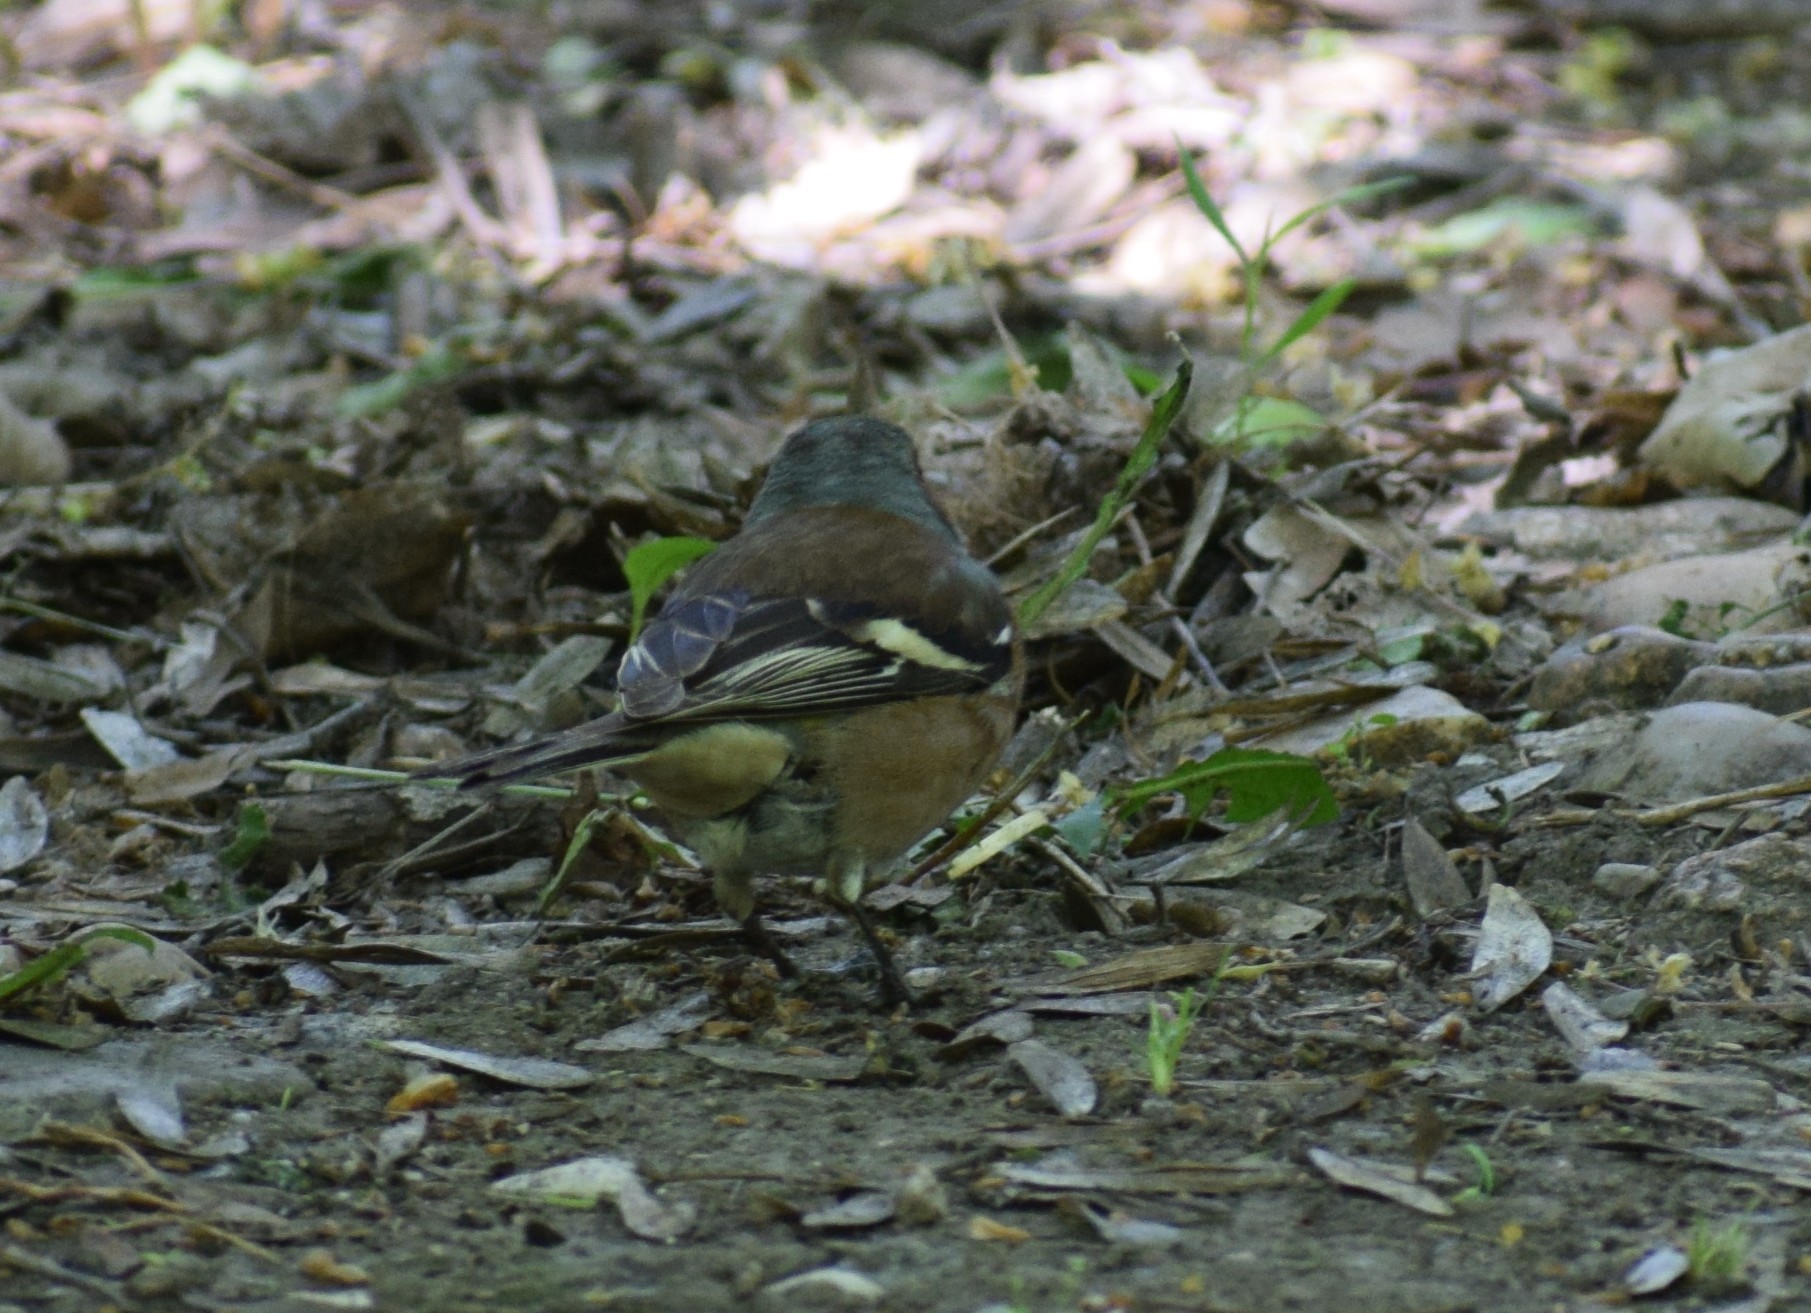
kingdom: Animalia
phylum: Chordata
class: Aves
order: Passeriformes
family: Fringillidae
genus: Fringilla
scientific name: Fringilla coelebs
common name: Common chaffinch
